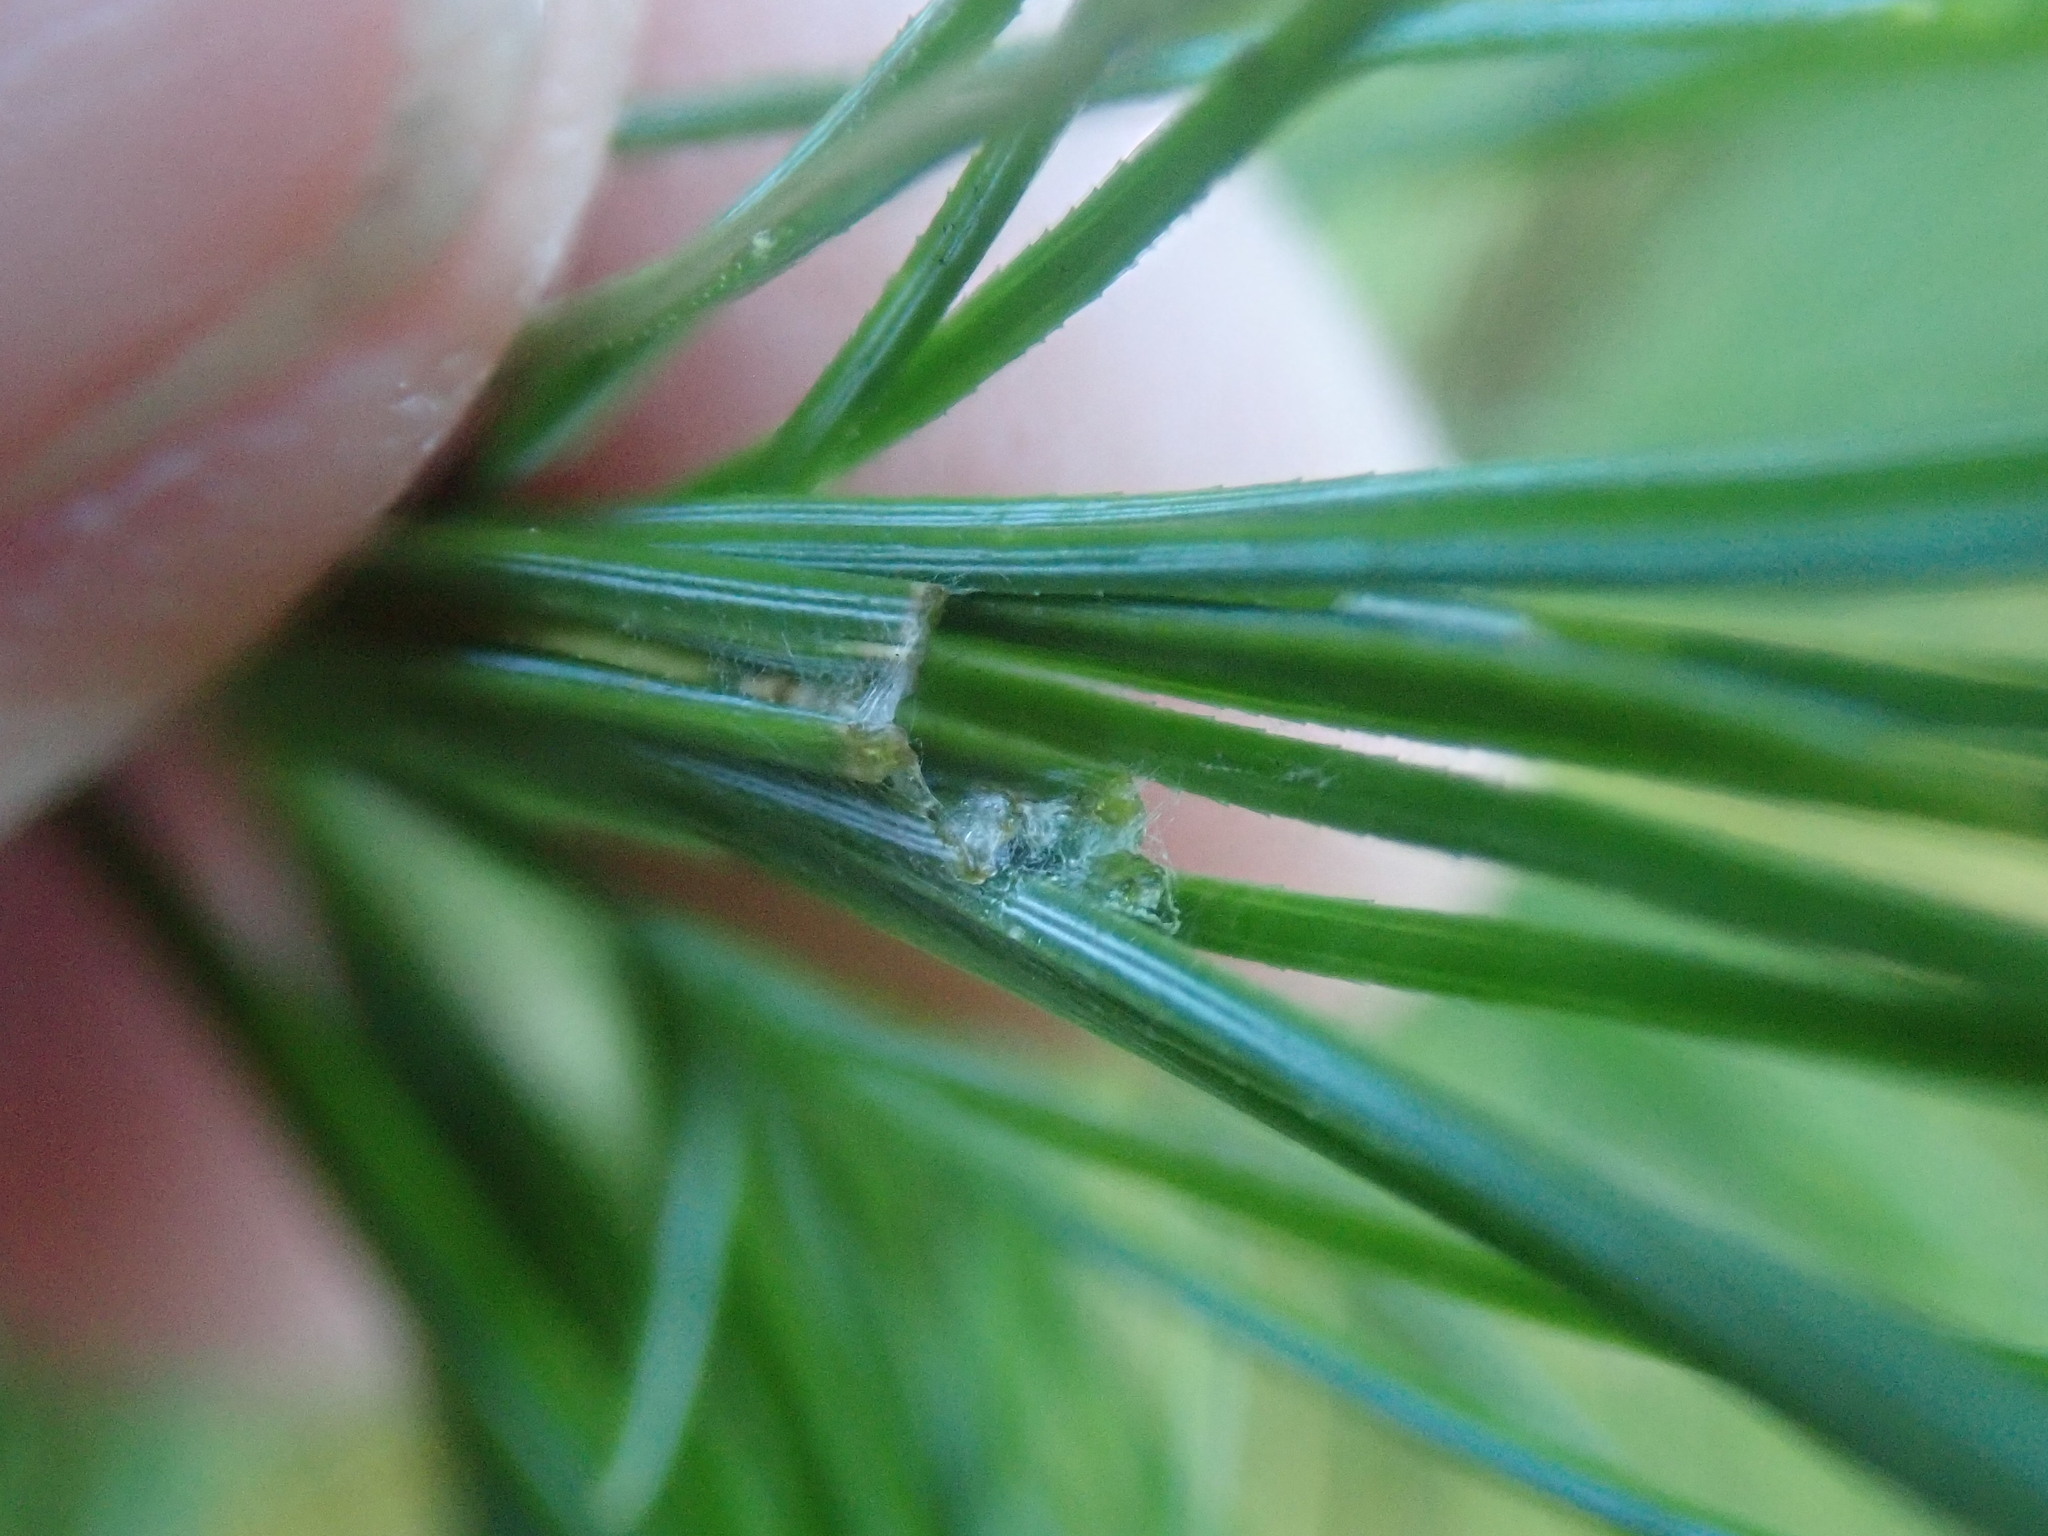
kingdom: Animalia
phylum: Arthropoda
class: Insecta
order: Lepidoptera
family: Tortricidae
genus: Argyrotaenia
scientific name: Argyrotaenia pinatubana
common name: Pine tube moth
